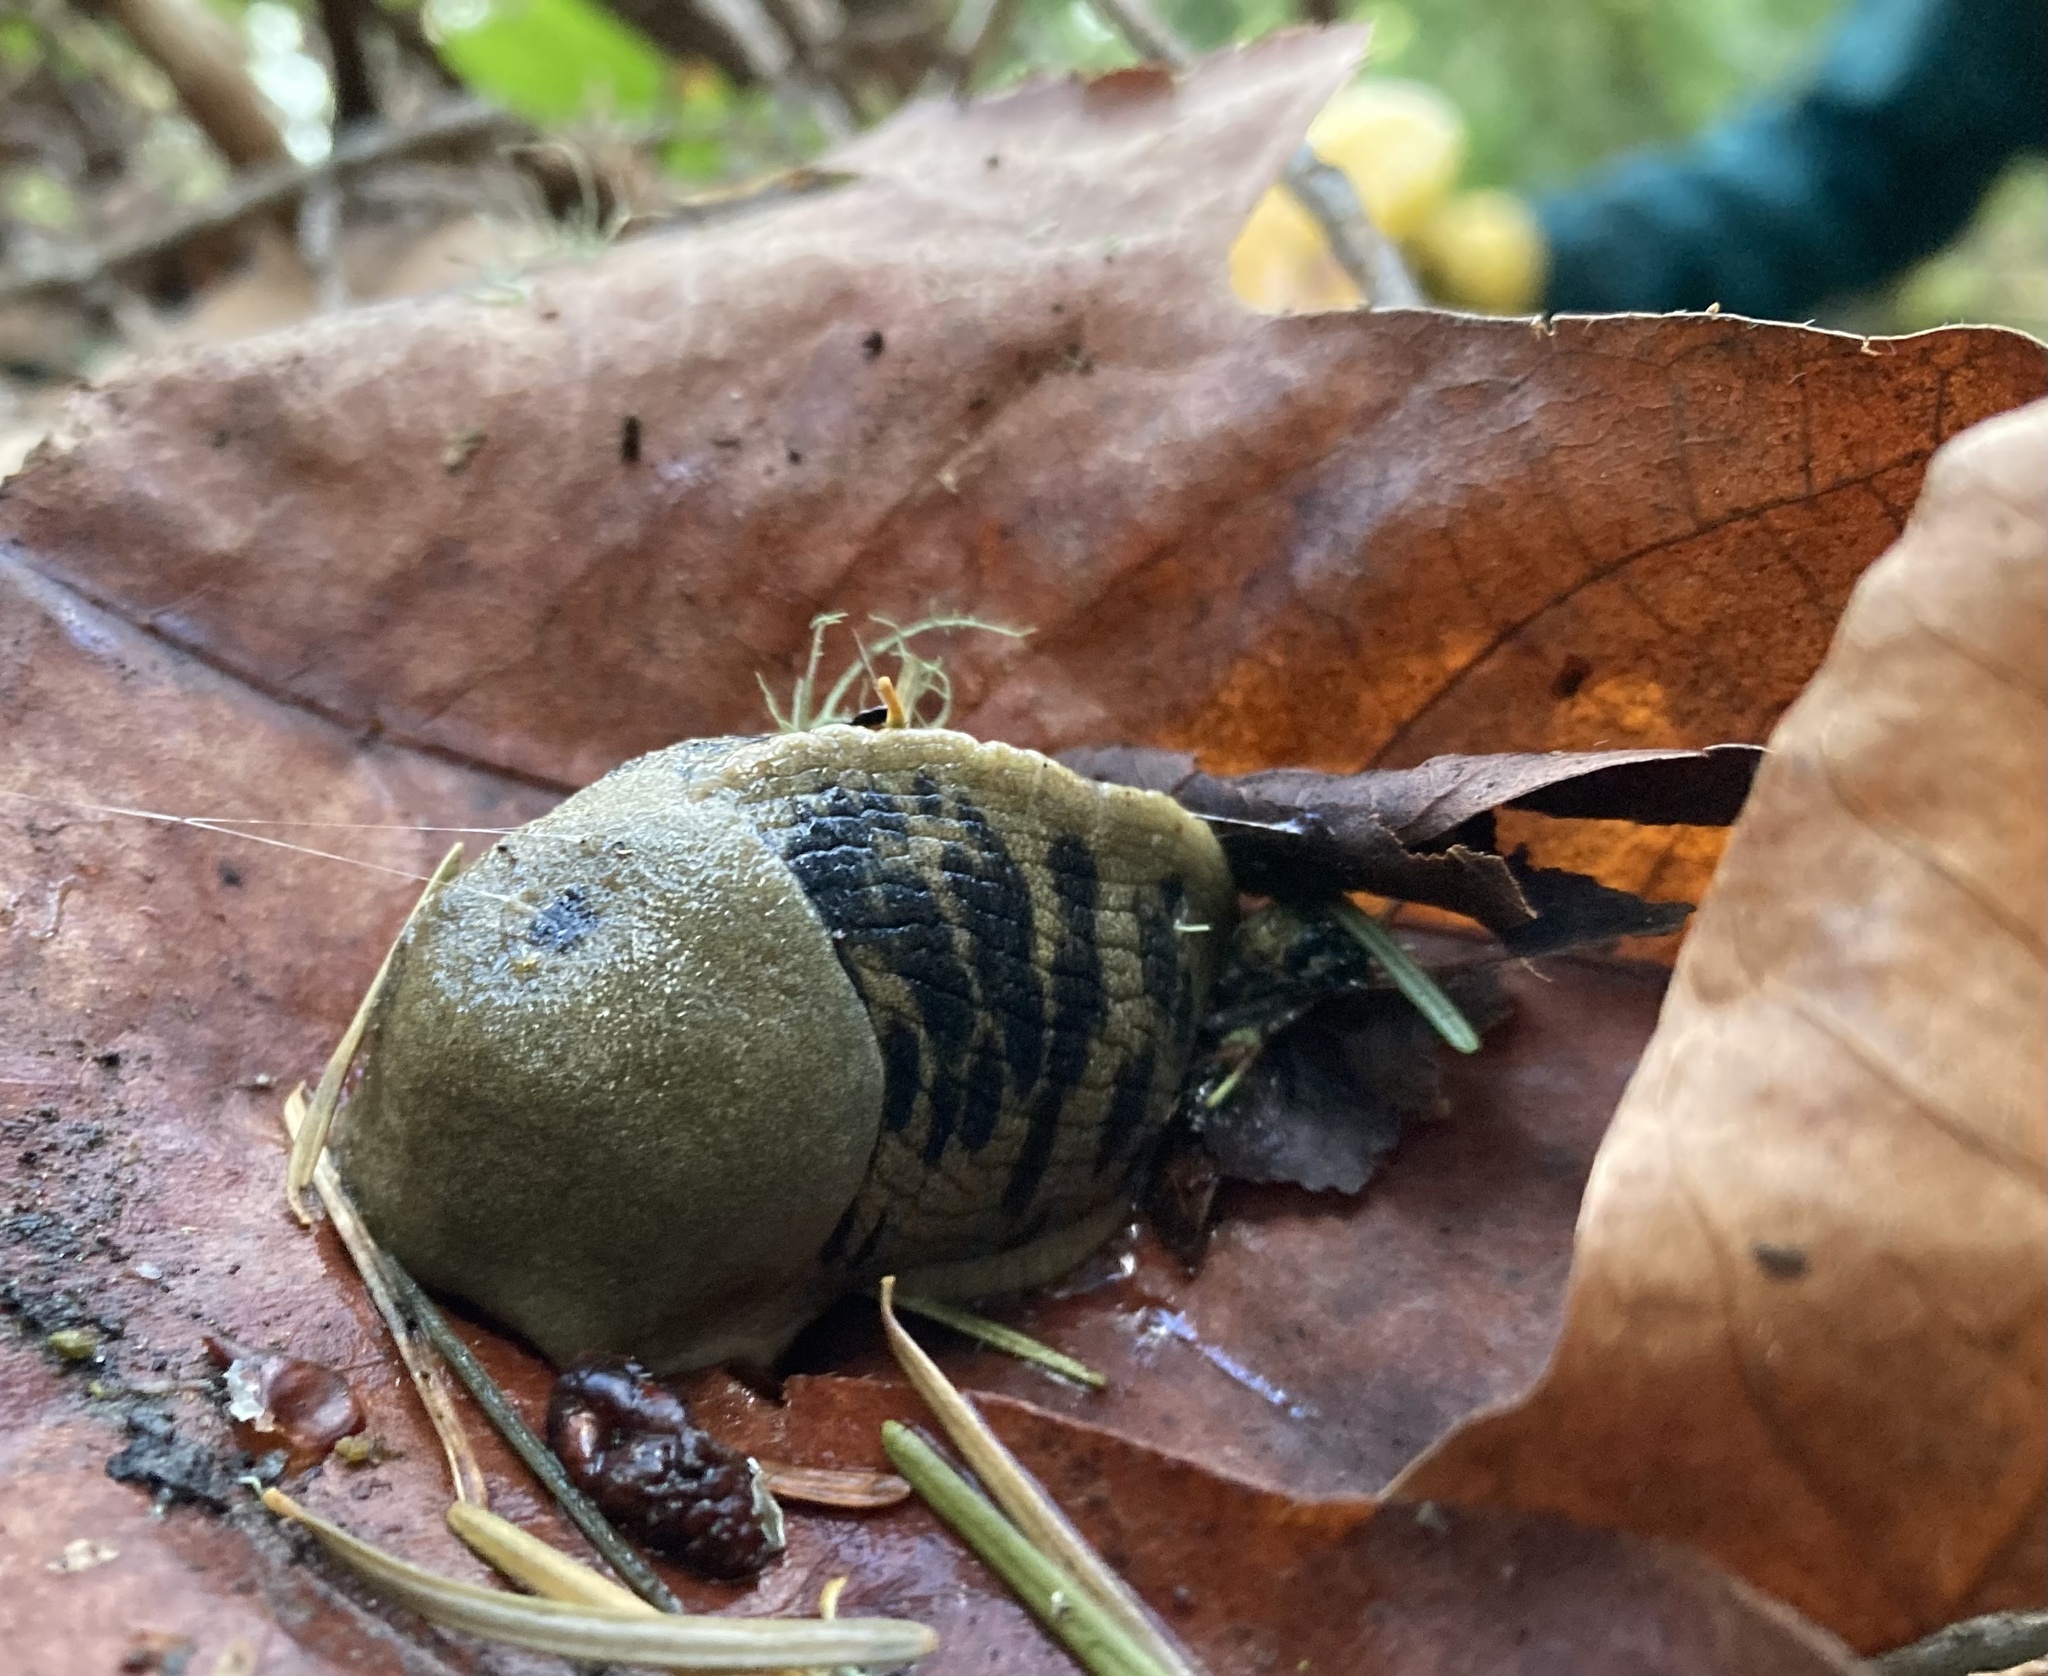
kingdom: Animalia
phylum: Mollusca
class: Gastropoda
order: Stylommatophora
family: Ariolimacidae
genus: Ariolimax
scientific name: Ariolimax columbianus
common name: Pacific banana slug
